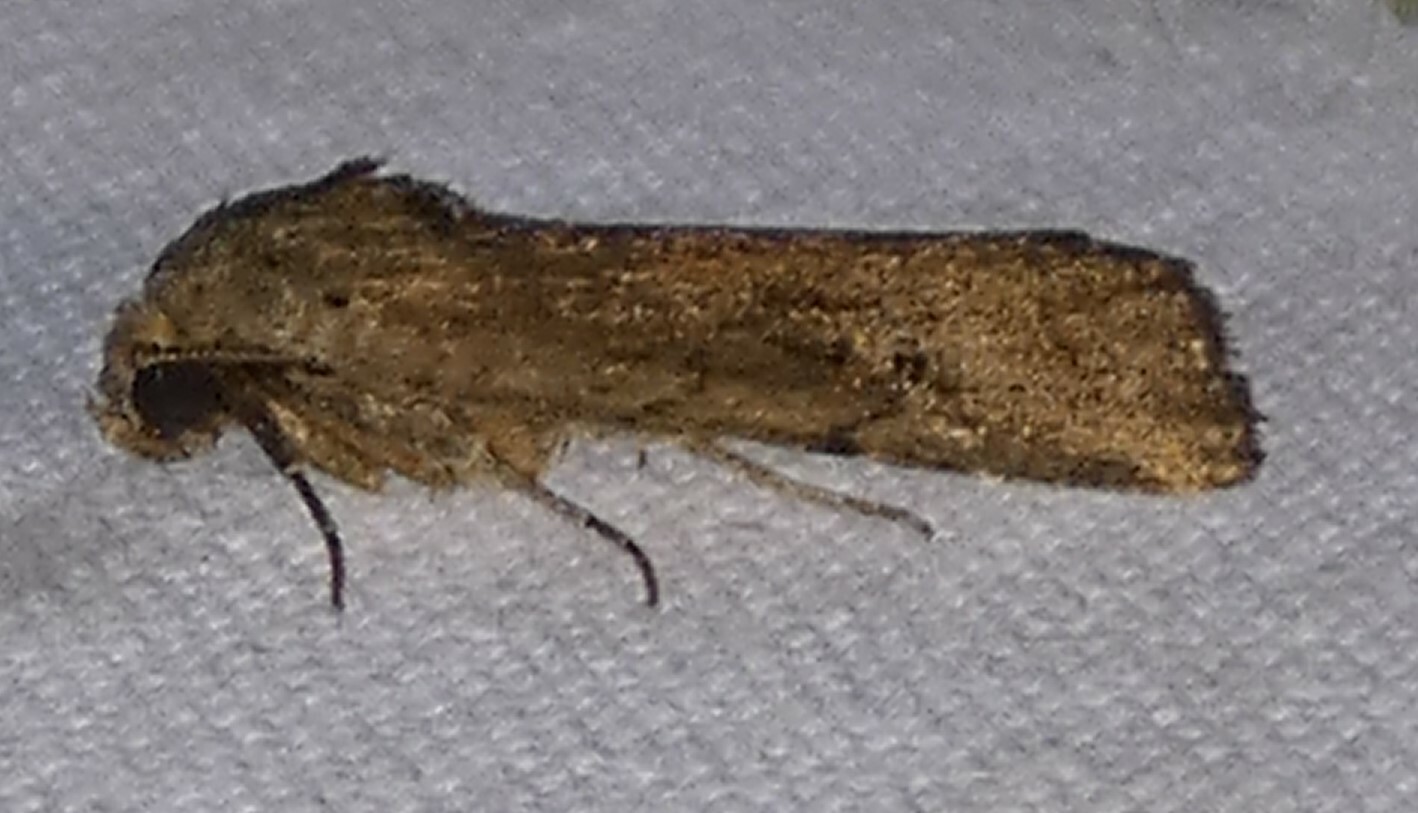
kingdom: Animalia
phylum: Arthropoda
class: Insecta
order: Lepidoptera
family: Noctuidae
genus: Elaphria
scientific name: Elaphria nucicolora
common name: Sugarcane midget moth
